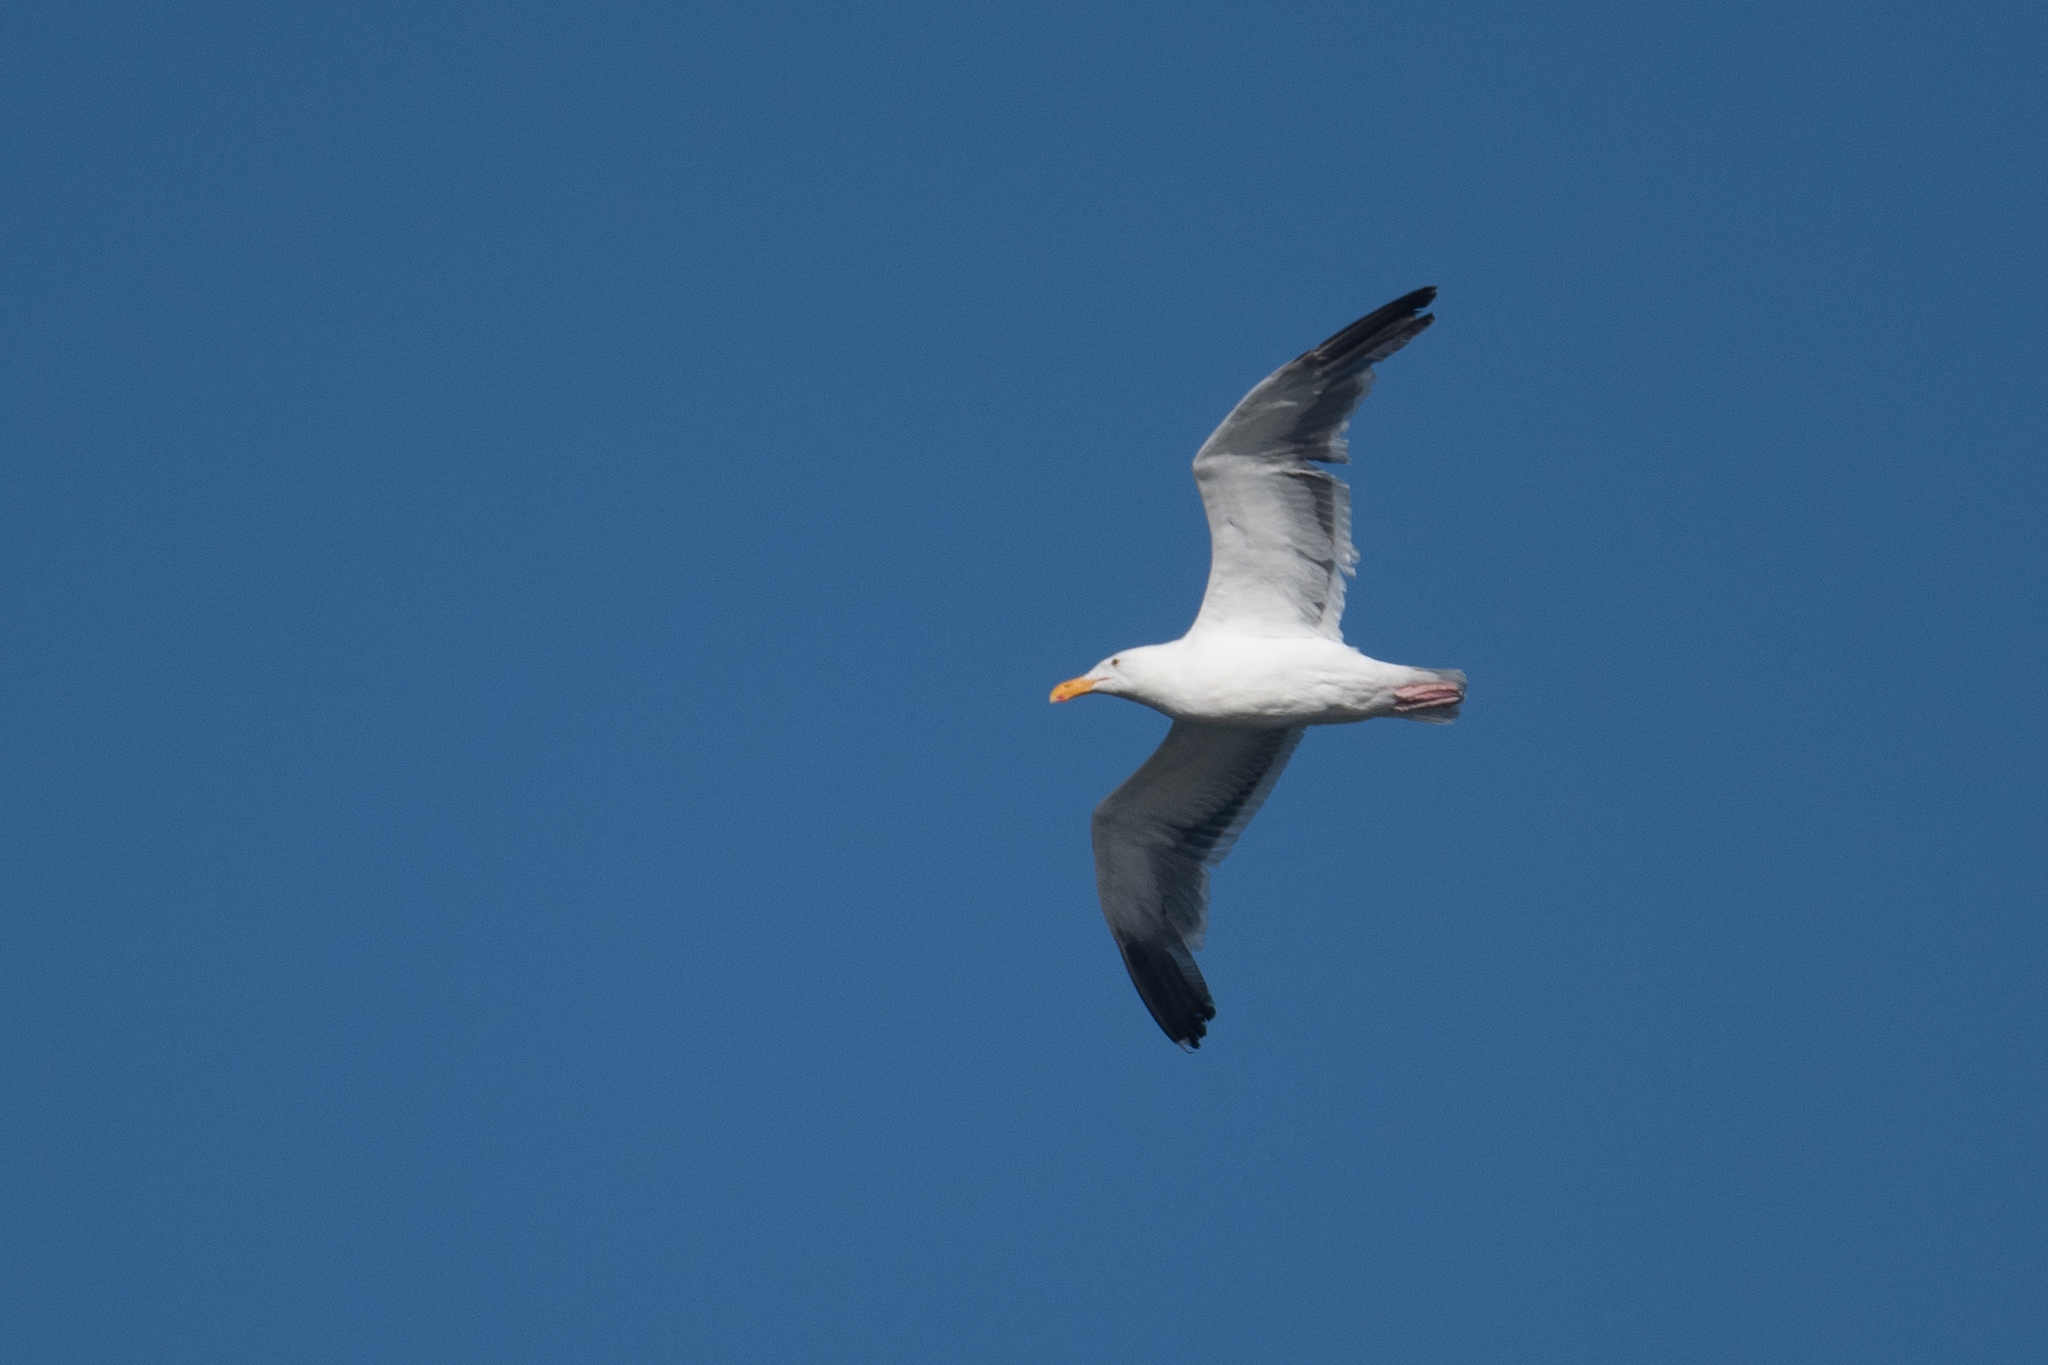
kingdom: Animalia
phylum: Chordata
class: Aves
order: Charadriiformes
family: Laridae
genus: Larus
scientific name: Larus occidentalis
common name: Western gull
